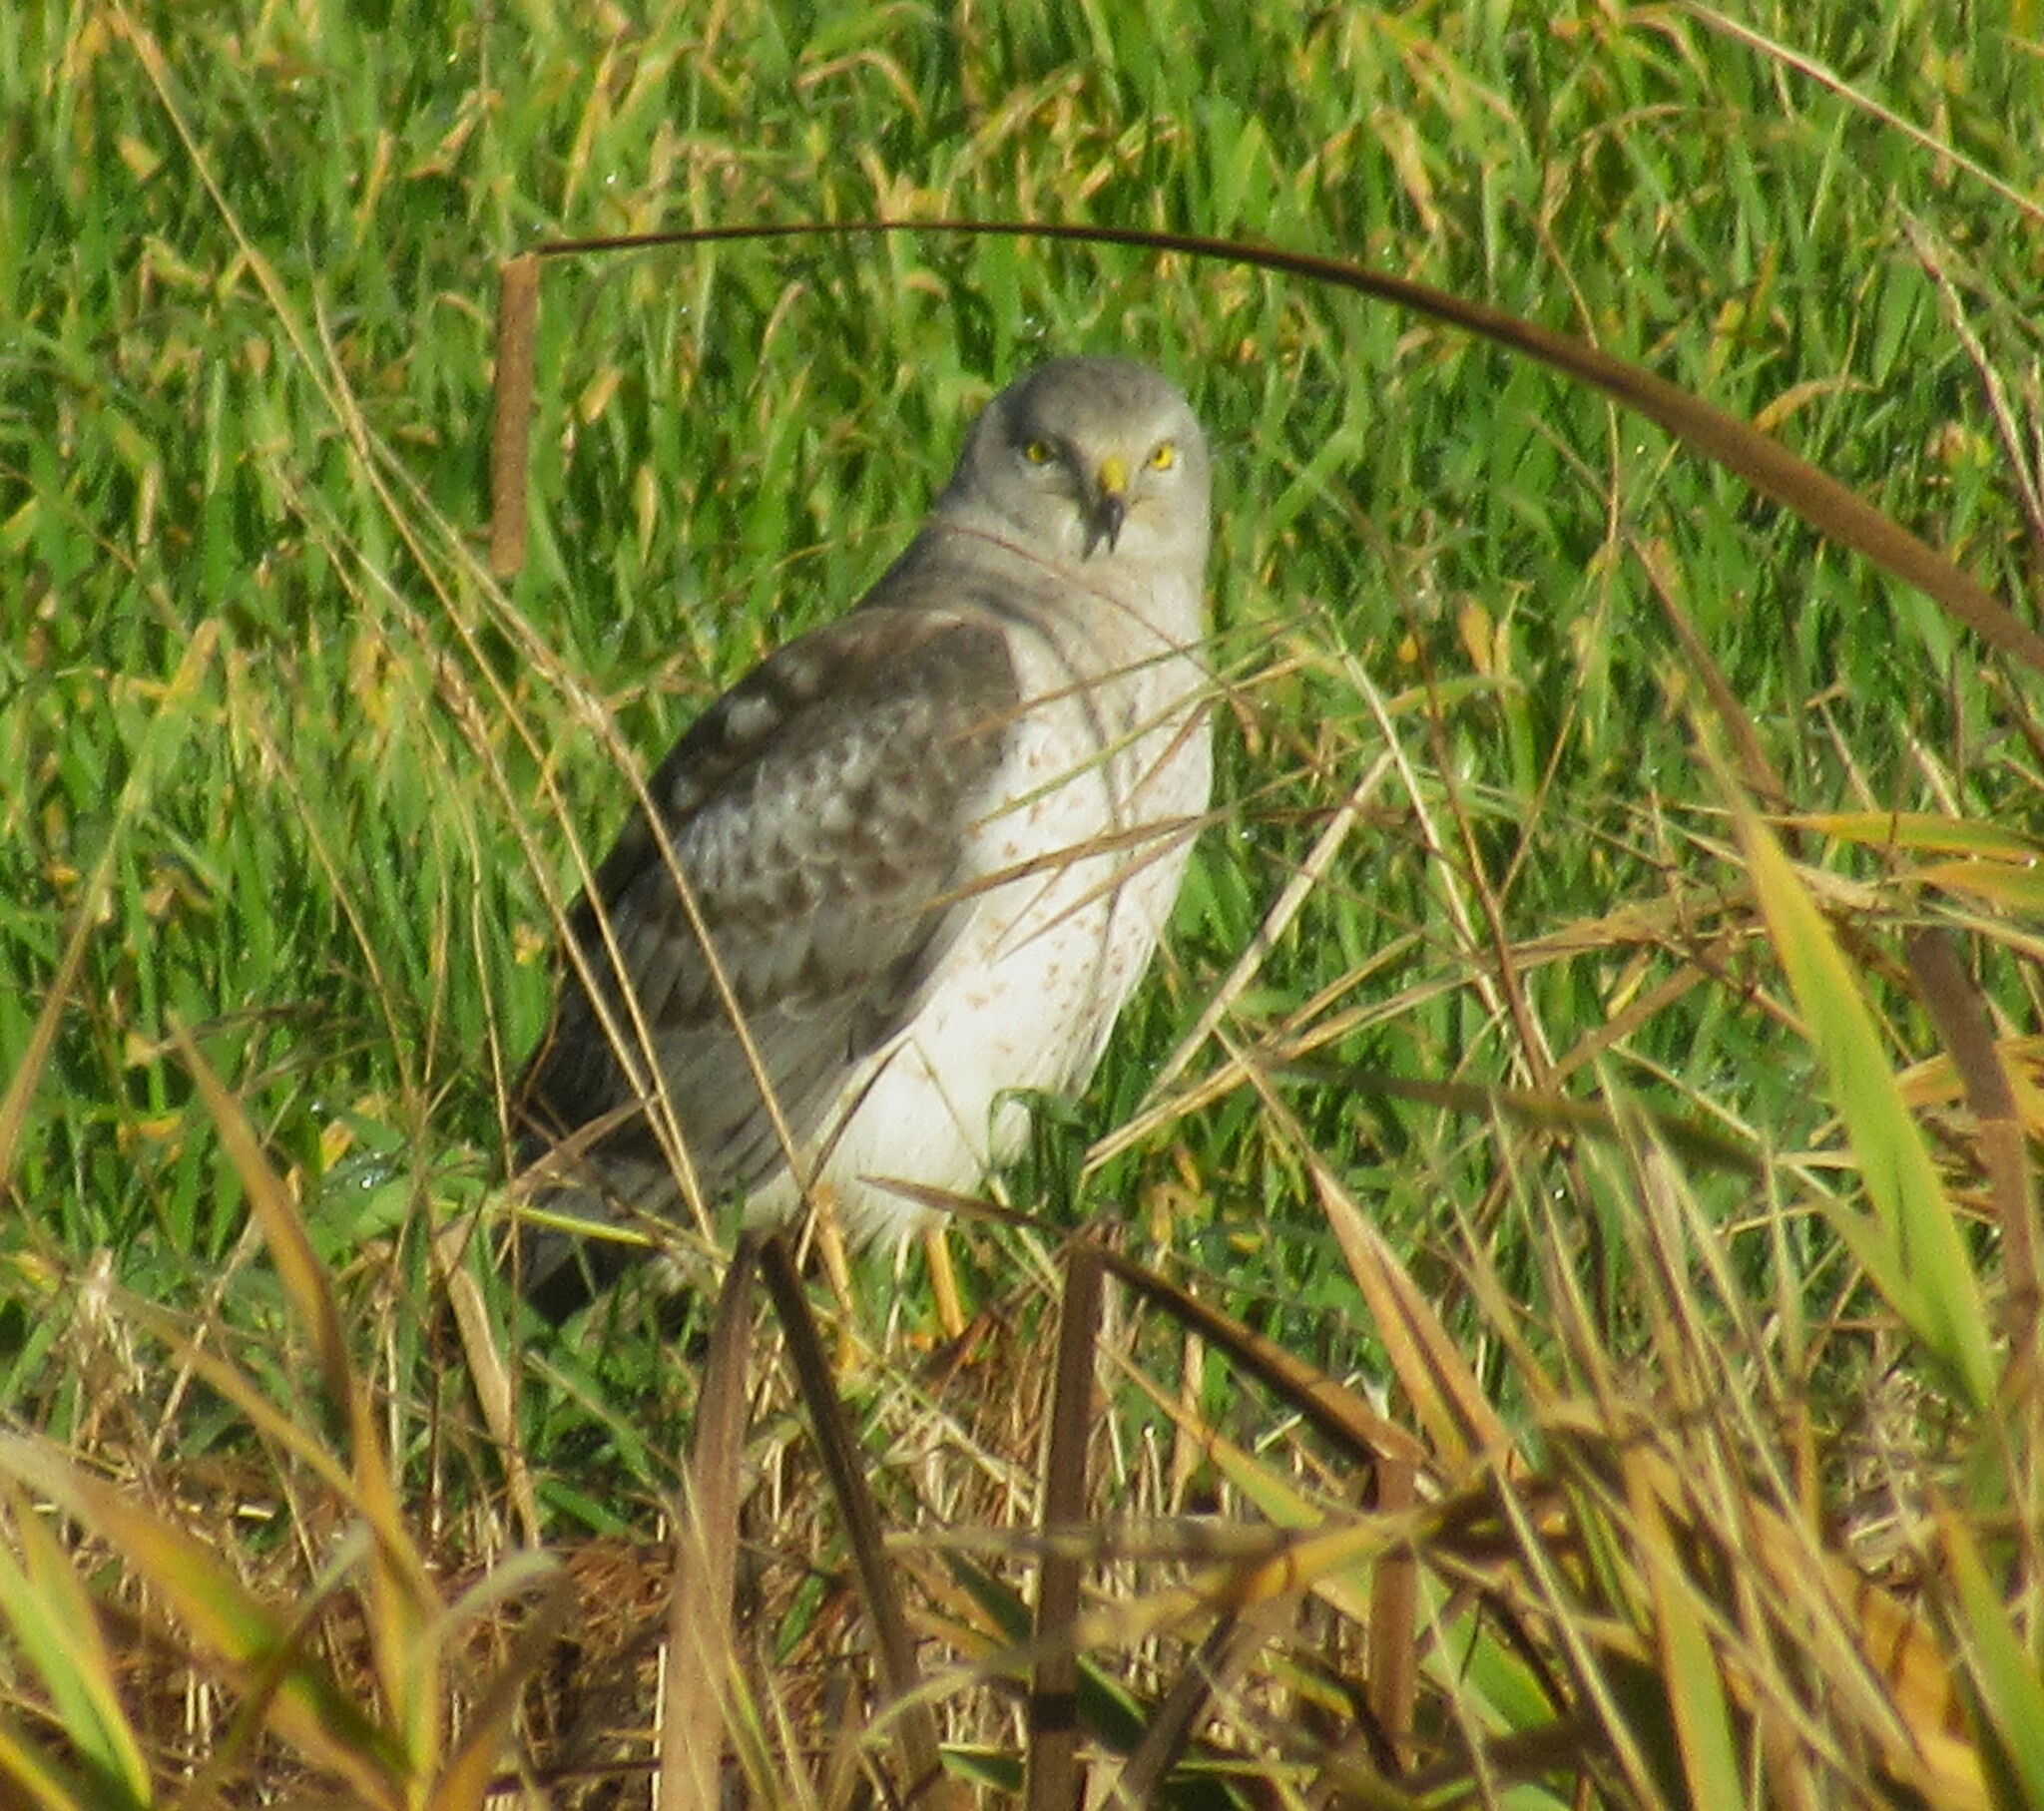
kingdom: Animalia
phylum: Chordata
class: Aves
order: Accipitriformes
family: Accipitridae
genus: Circus
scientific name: Circus cyaneus
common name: Hen harrier
